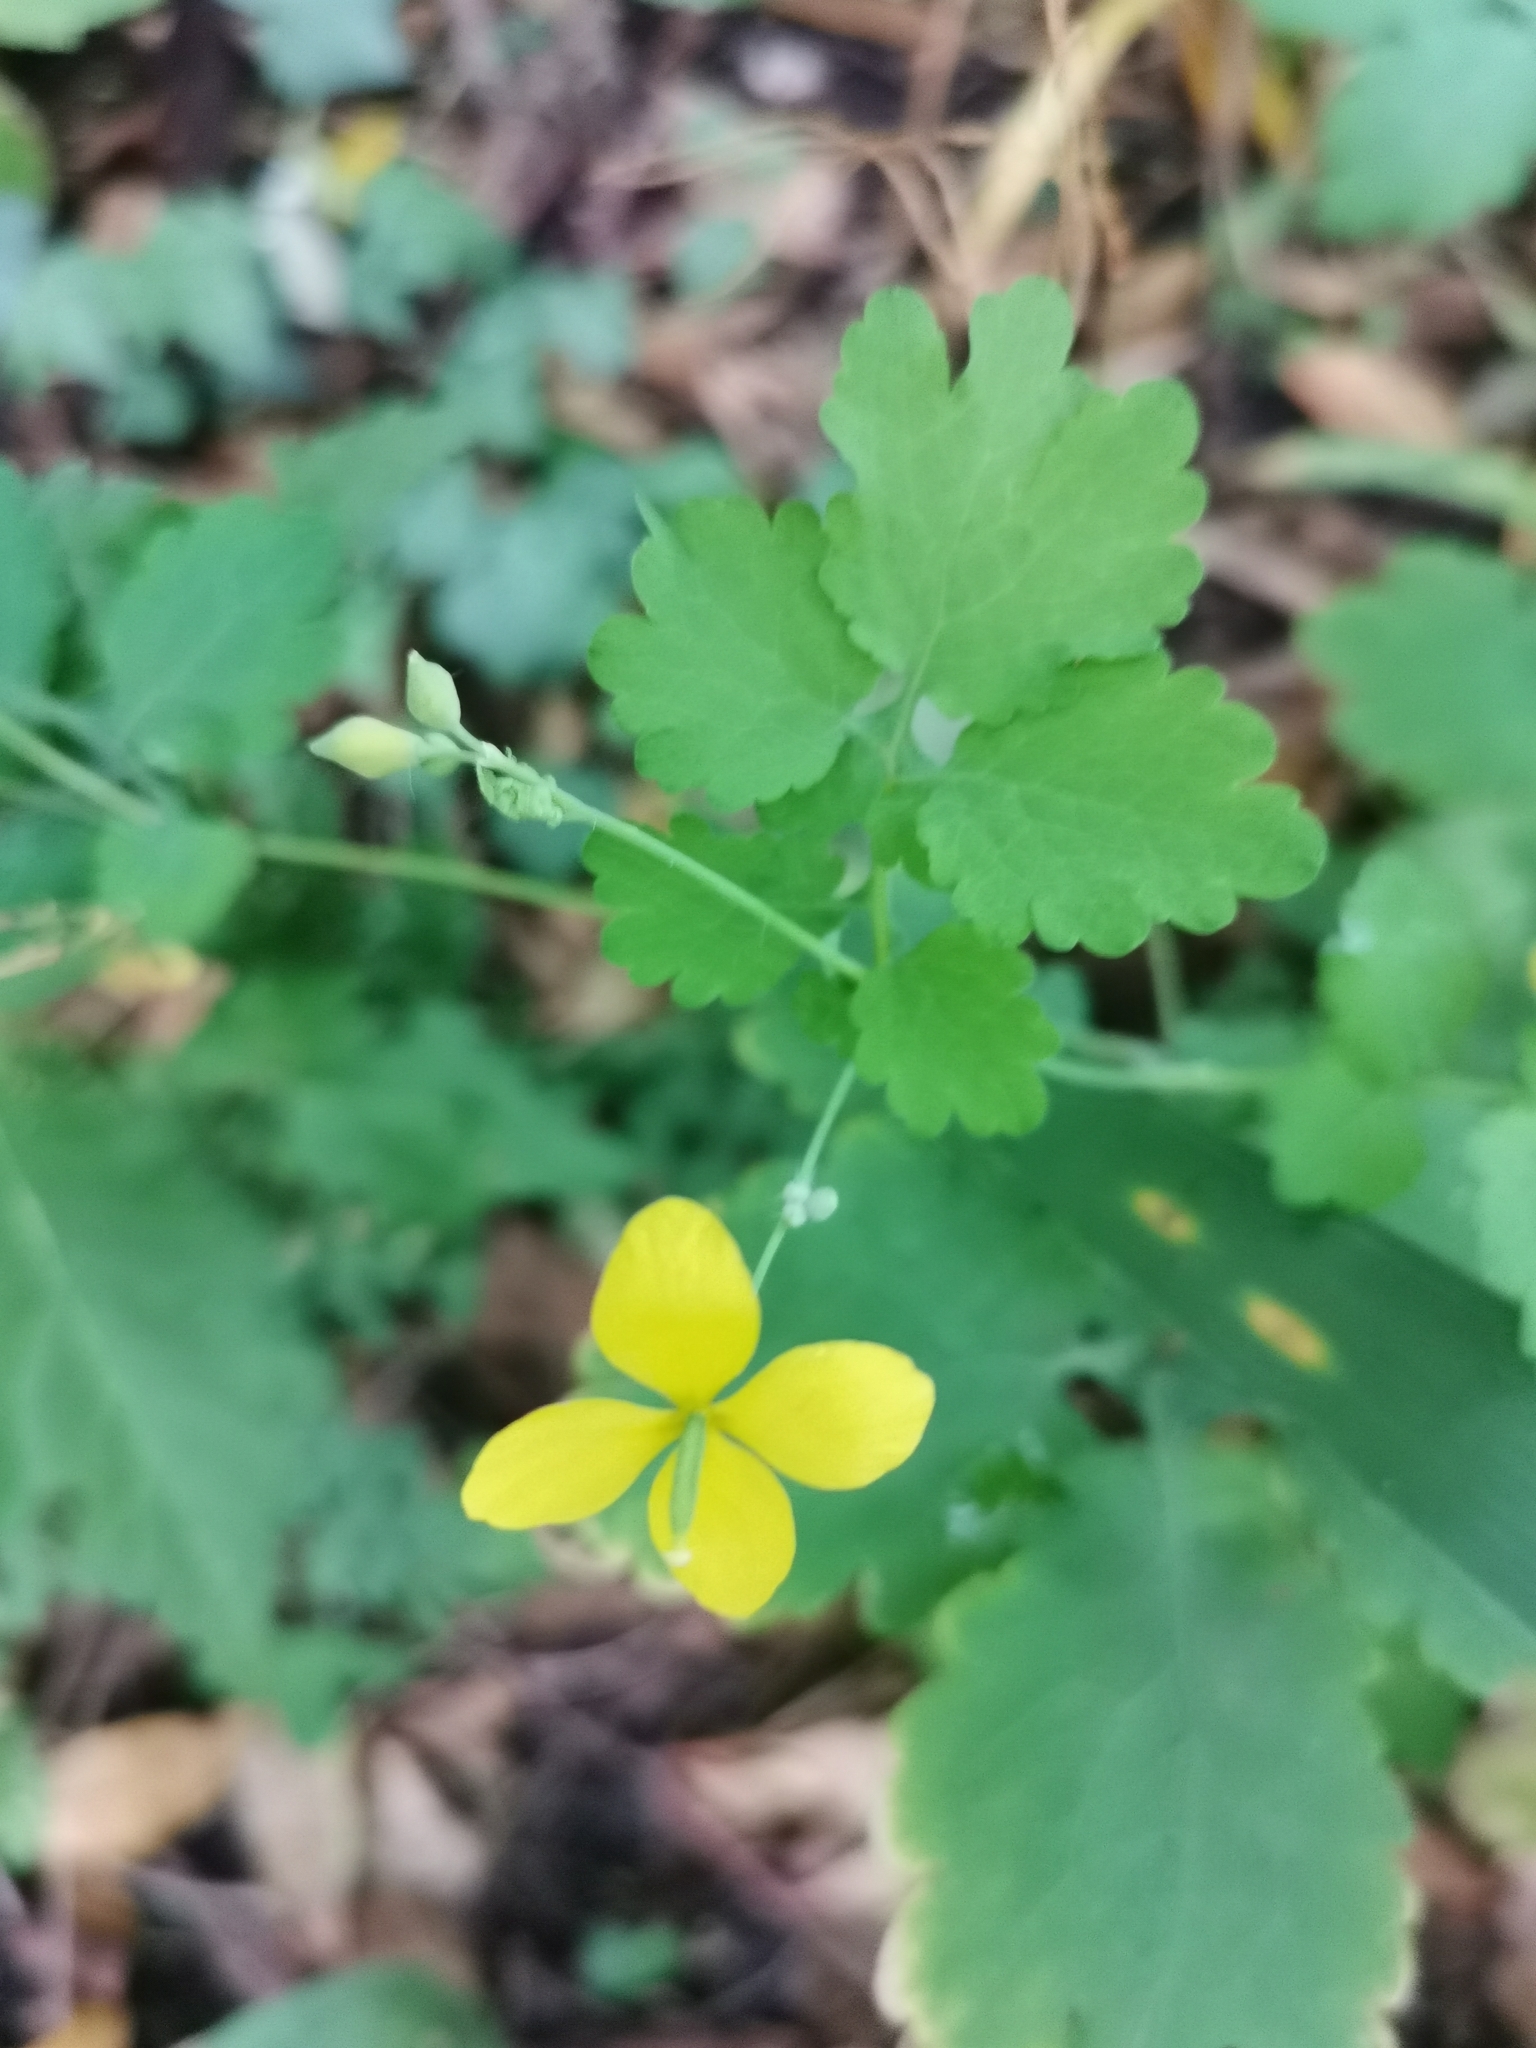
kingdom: Plantae
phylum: Tracheophyta
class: Magnoliopsida
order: Ranunculales
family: Papaveraceae
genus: Chelidonium
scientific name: Chelidonium majus
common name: Greater celandine
